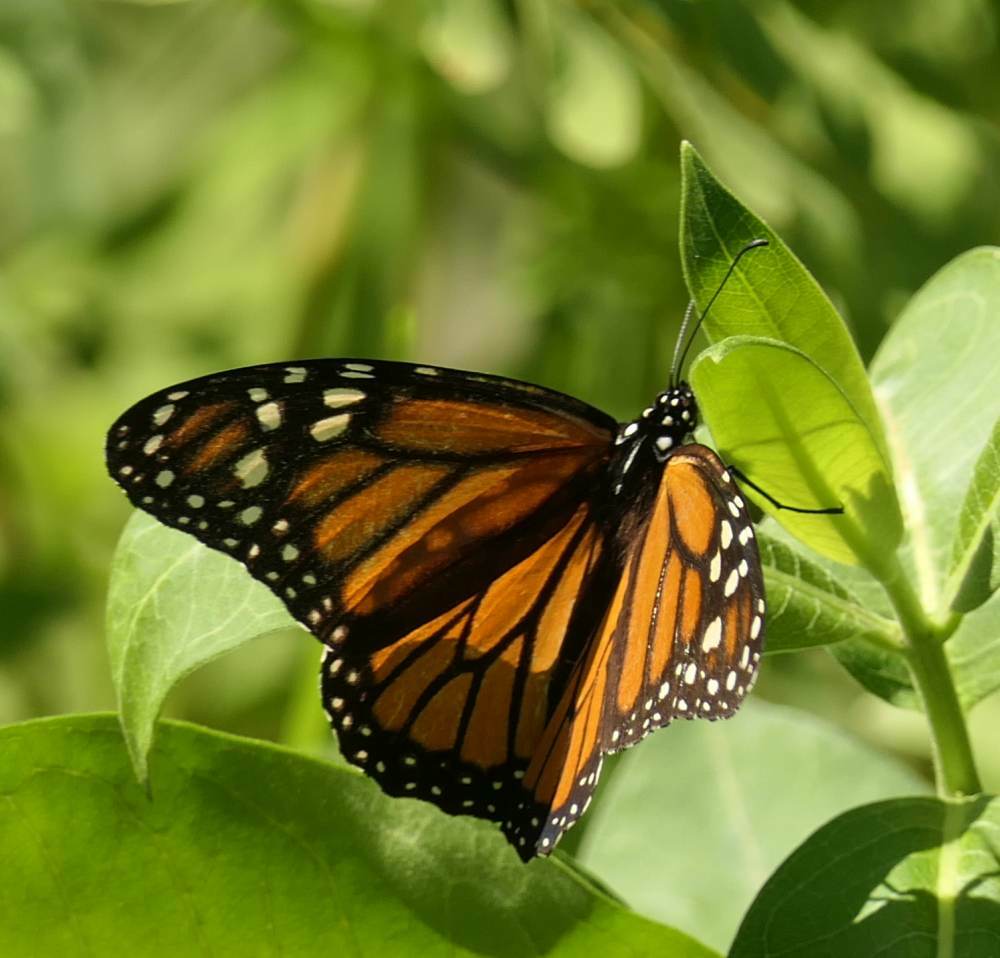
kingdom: Animalia
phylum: Arthropoda
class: Insecta
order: Lepidoptera
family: Nymphalidae
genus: Danaus
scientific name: Danaus plexippus
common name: Monarch
